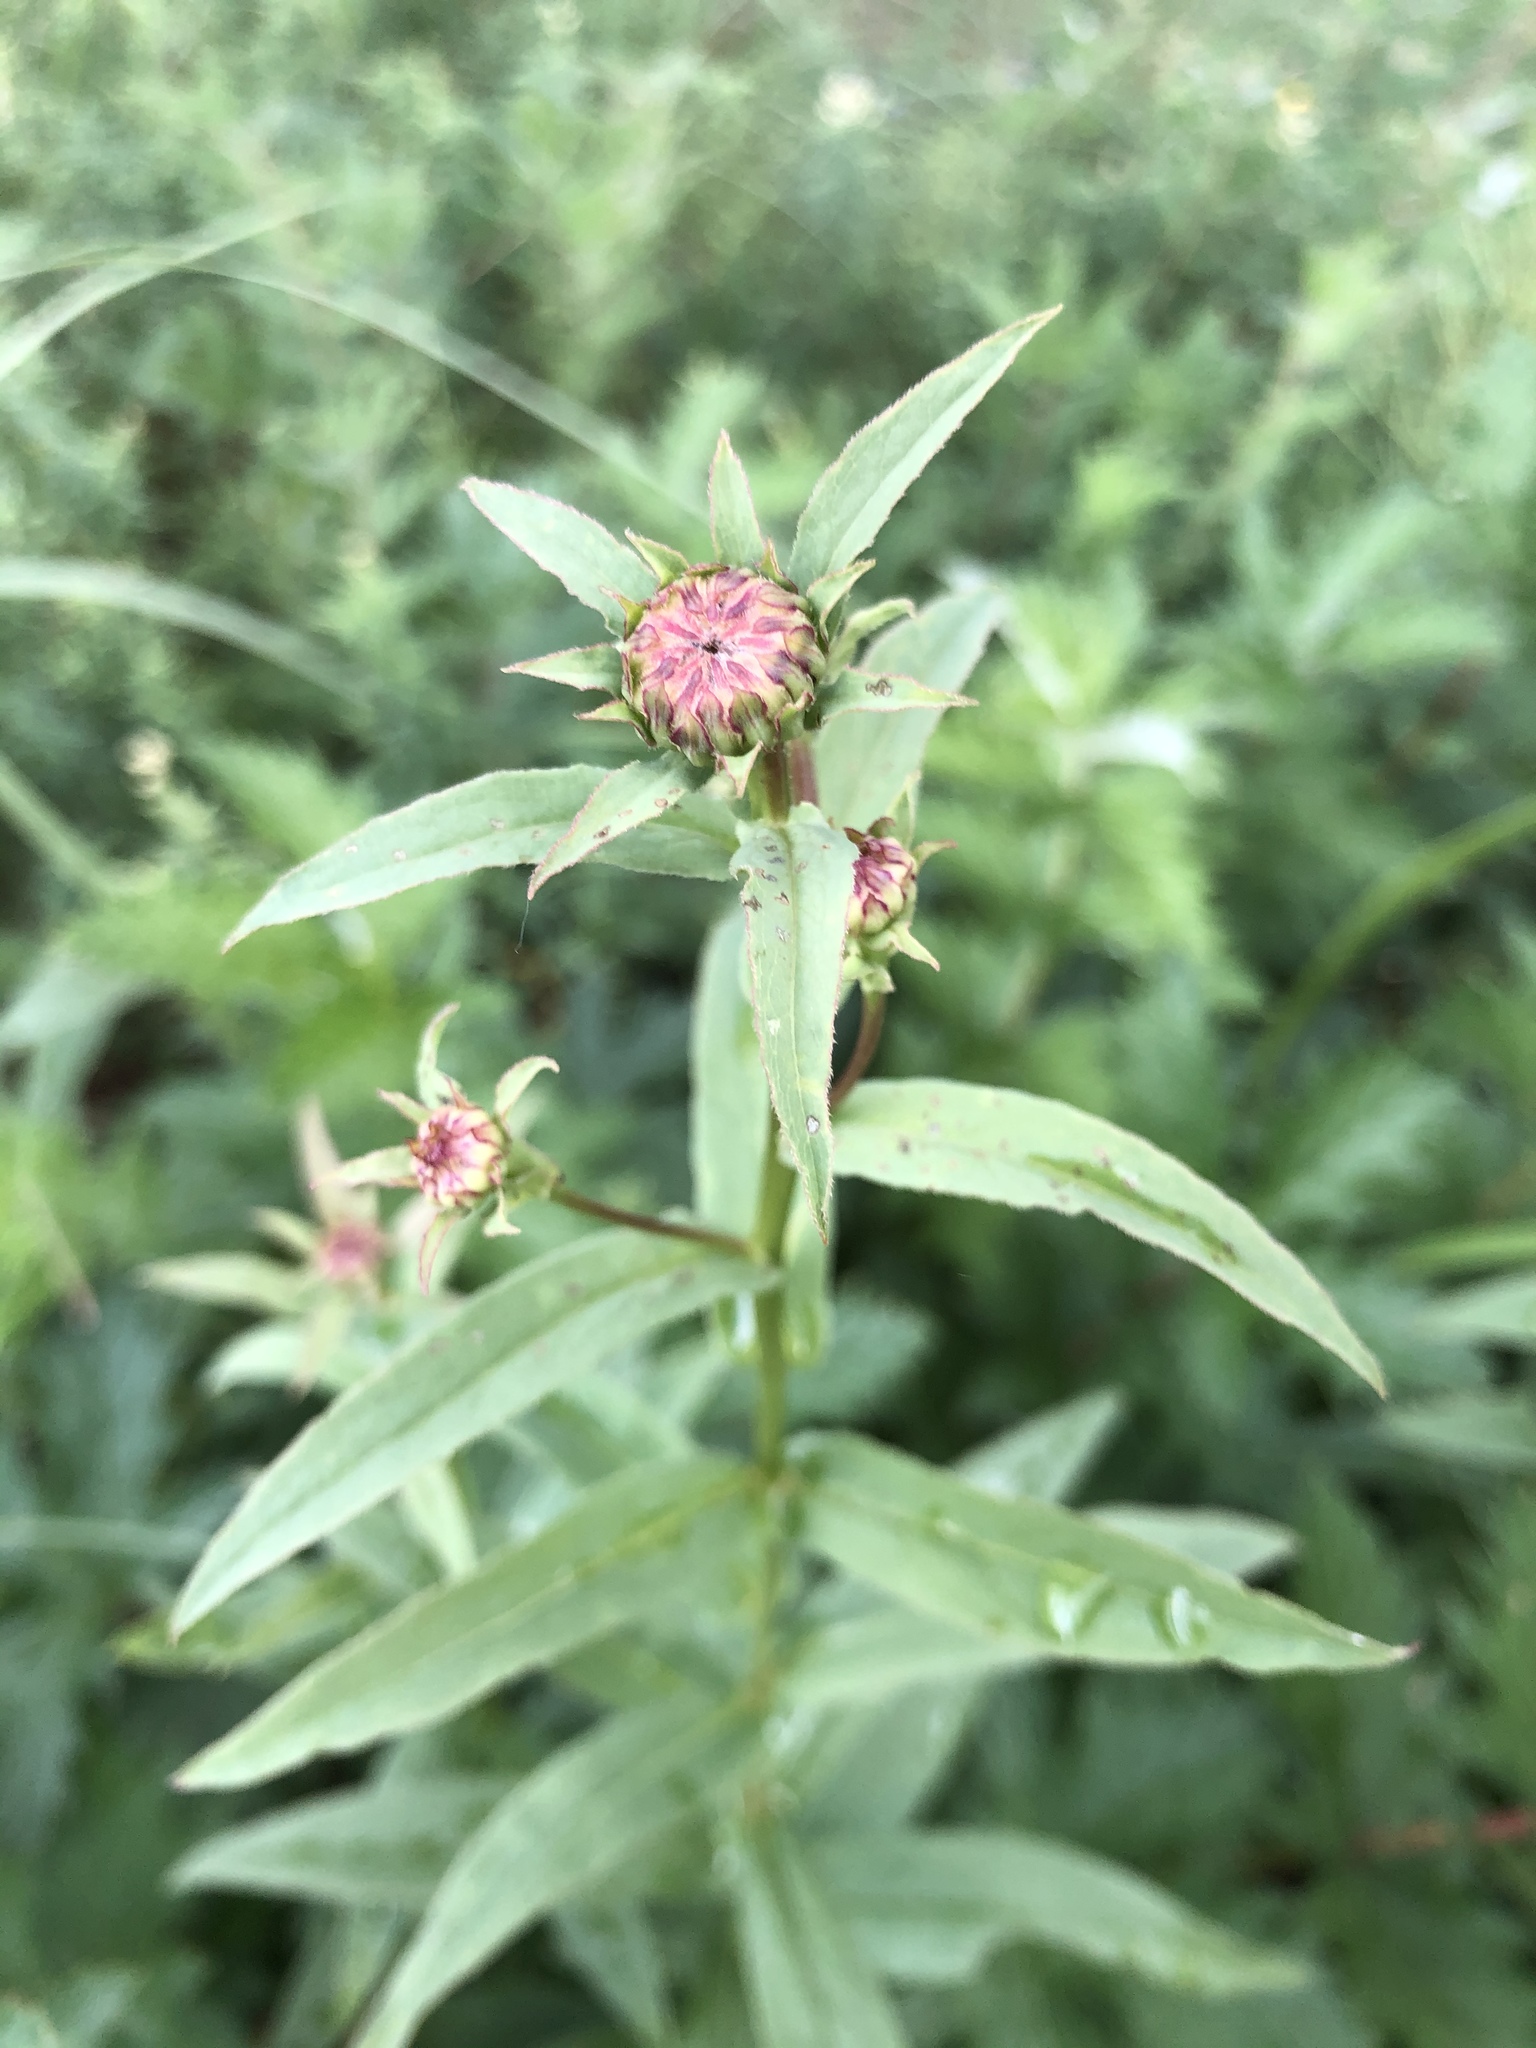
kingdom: Plantae
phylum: Tracheophyta
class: Magnoliopsida
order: Asterales
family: Asteraceae
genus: Pentanema
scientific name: Pentanema salicinum
